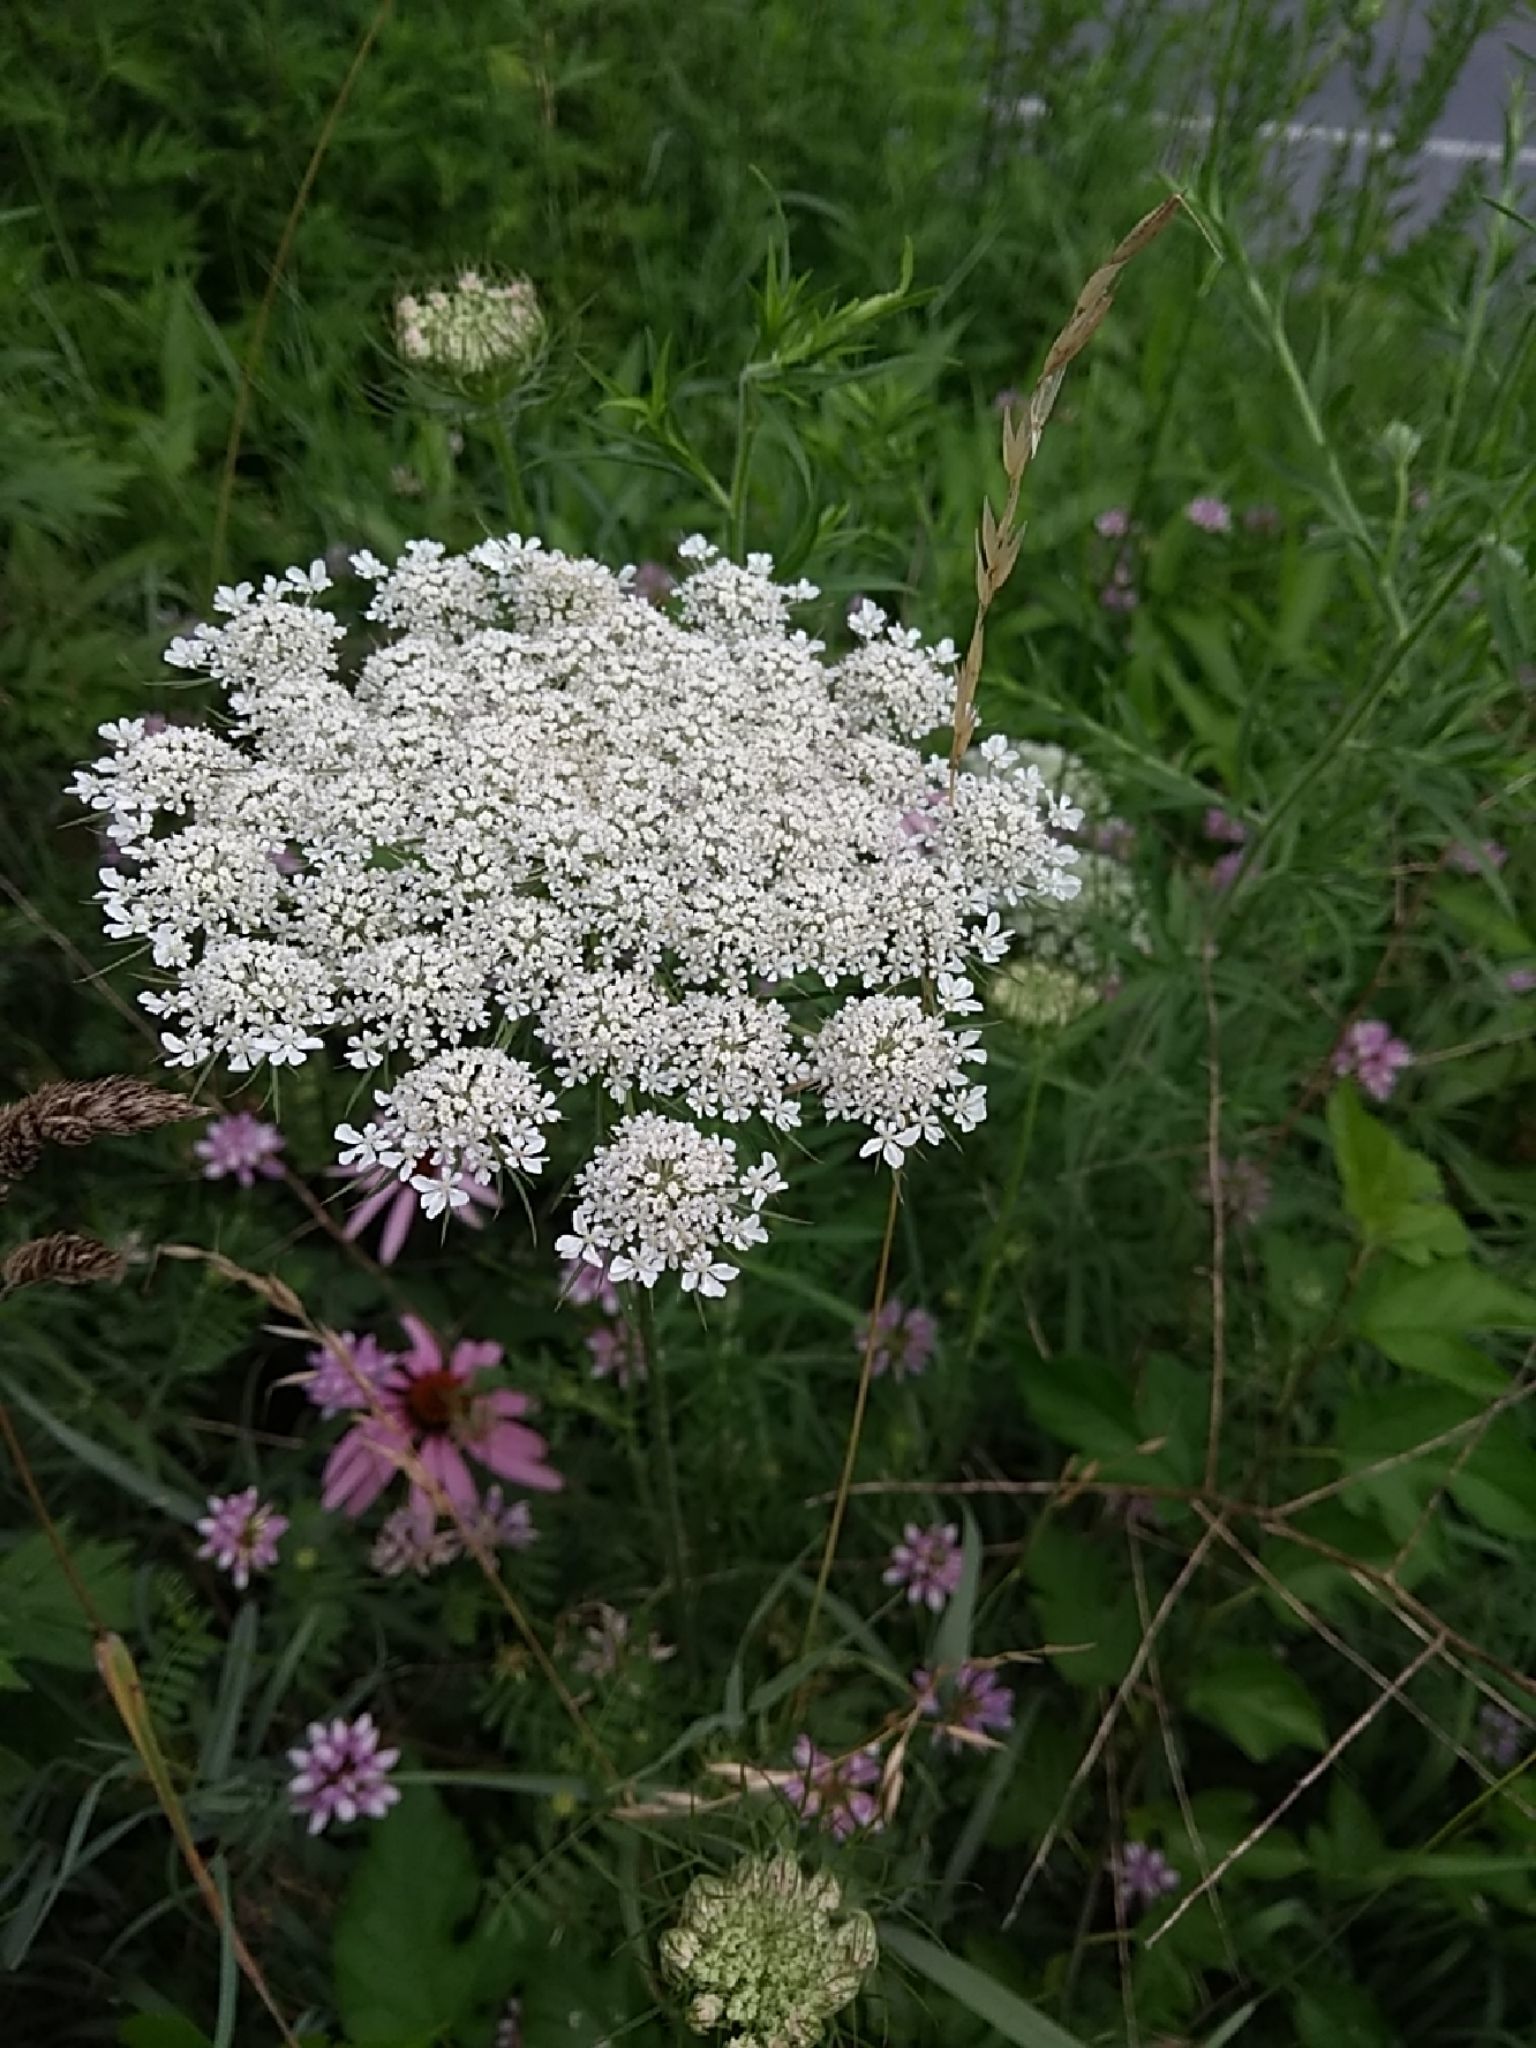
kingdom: Plantae
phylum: Tracheophyta
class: Magnoliopsida
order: Apiales
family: Apiaceae
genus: Daucus
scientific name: Daucus carota
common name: Wild carrot
